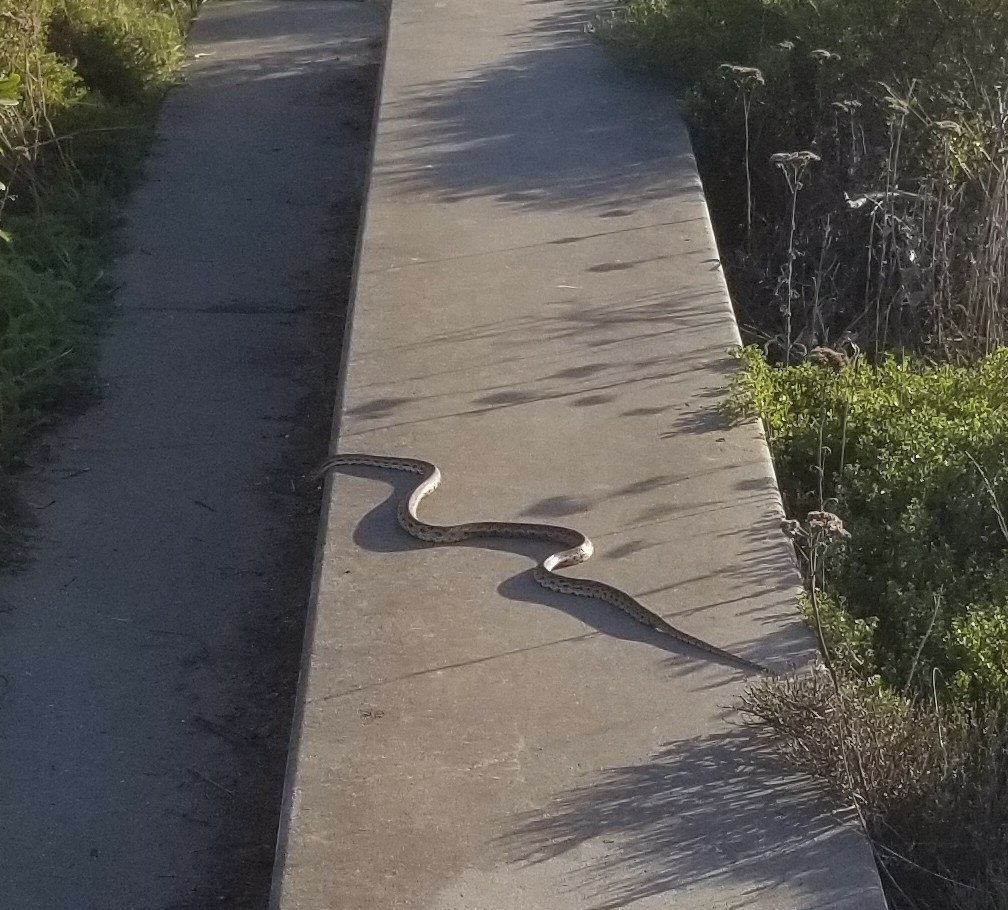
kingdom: Animalia
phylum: Chordata
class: Squamata
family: Colubridae
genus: Pituophis
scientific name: Pituophis catenifer
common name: Gopher snake
